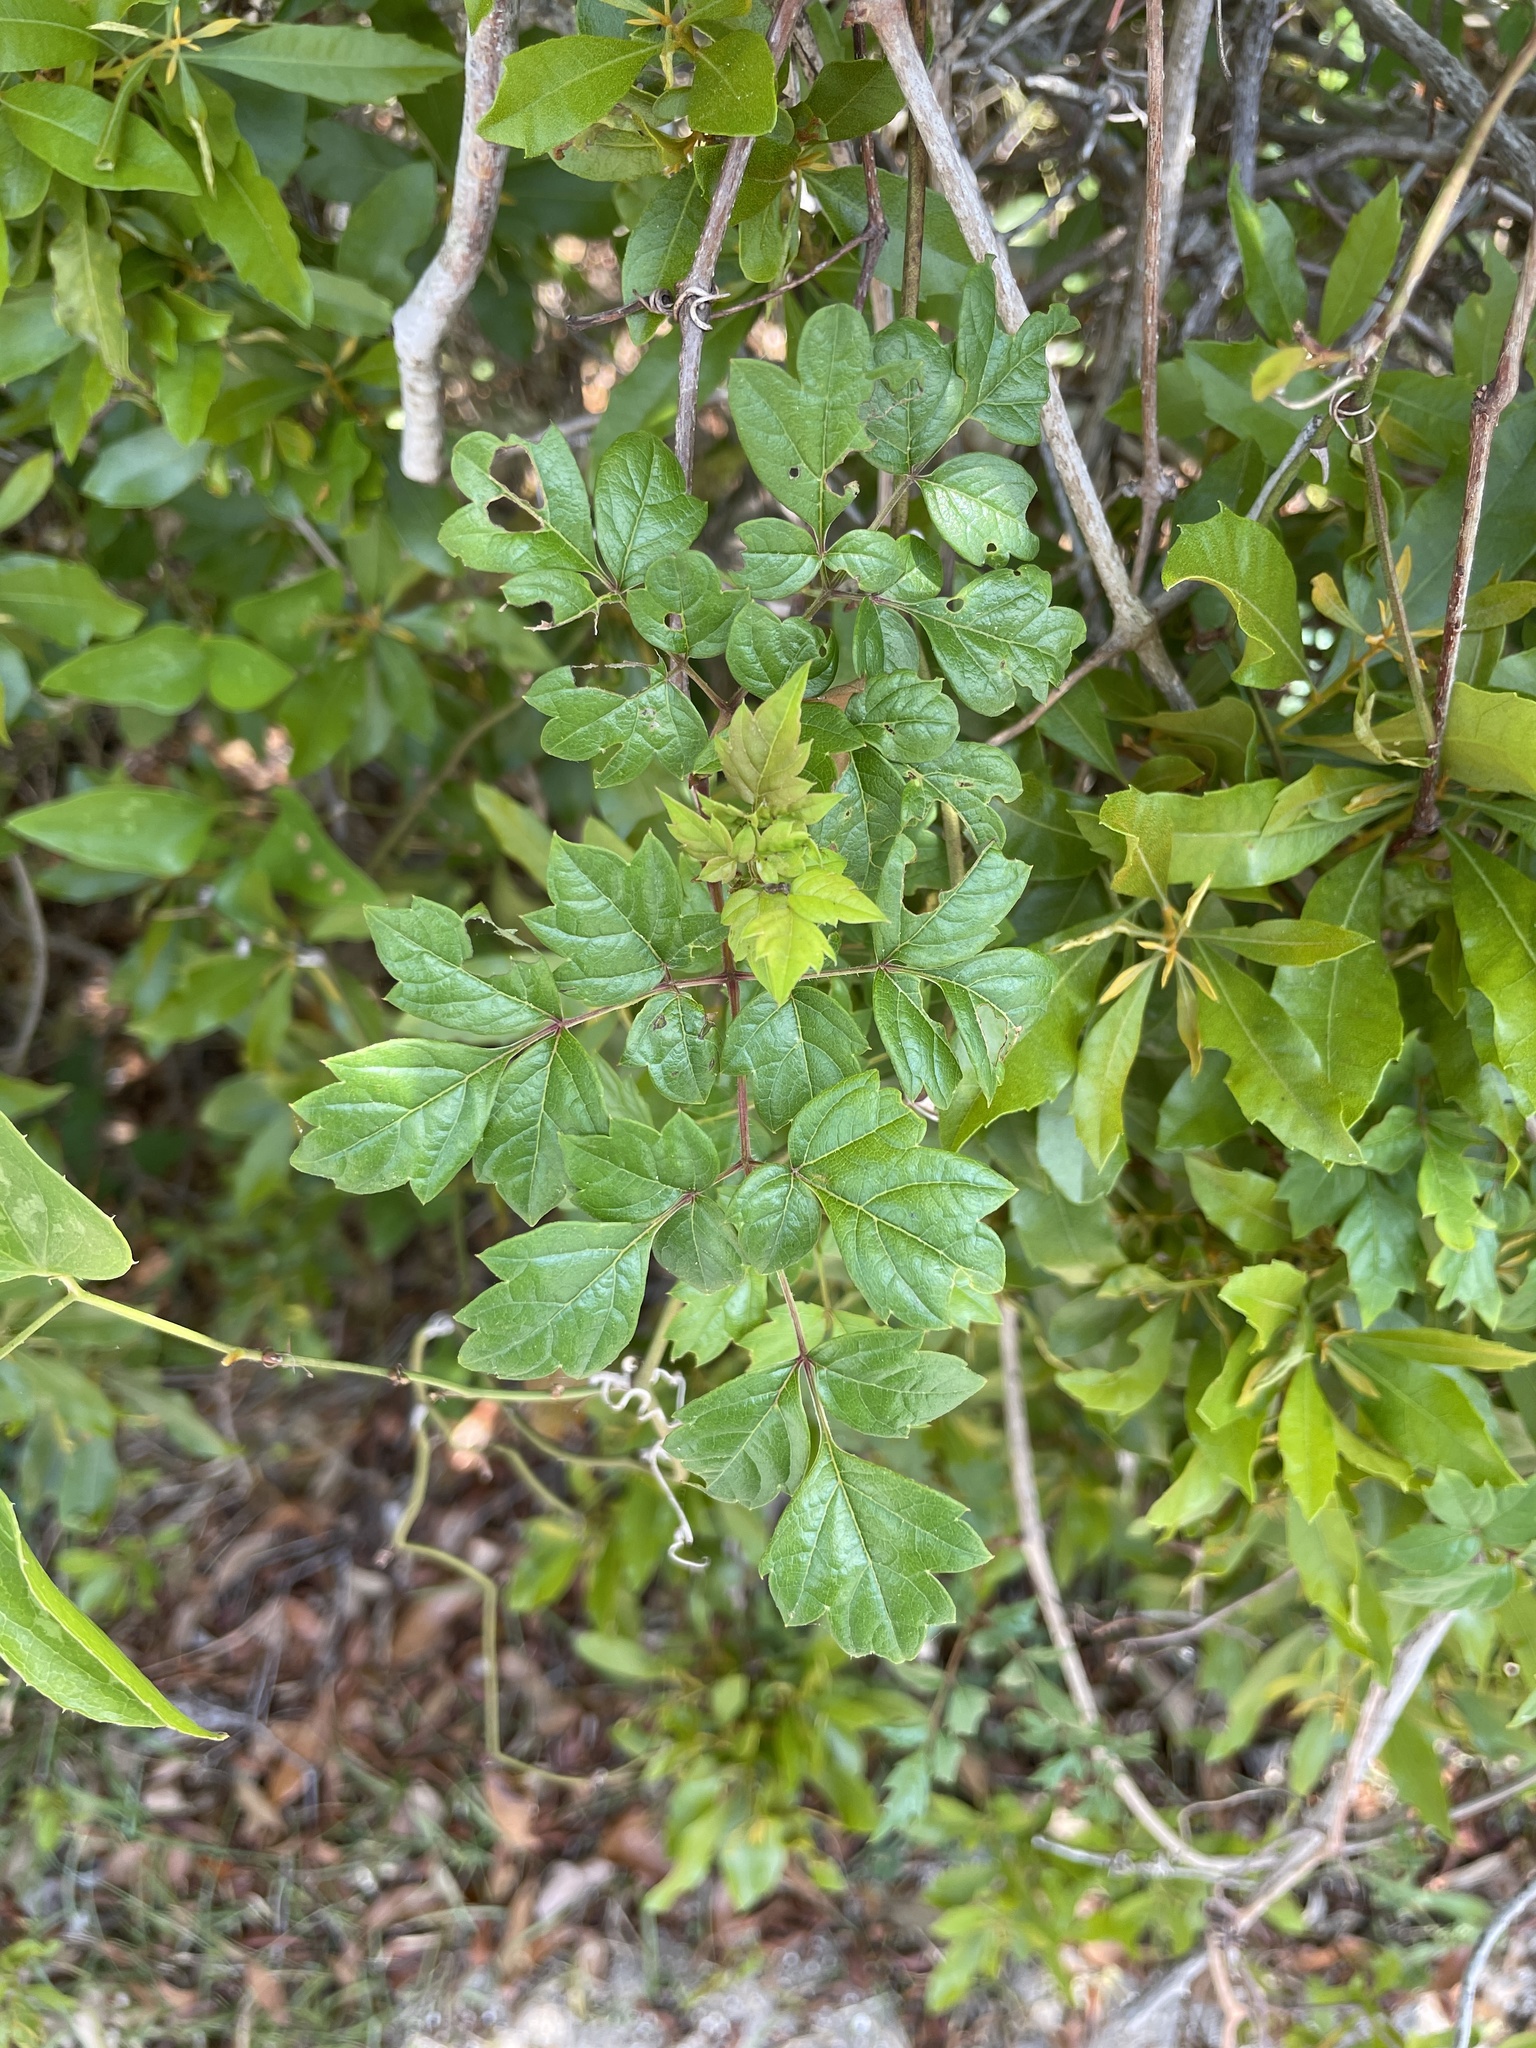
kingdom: Plantae
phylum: Tracheophyta
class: Magnoliopsida
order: Vitales
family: Vitaceae
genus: Nekemias
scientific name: Nekemias arborea
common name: Peppervine
